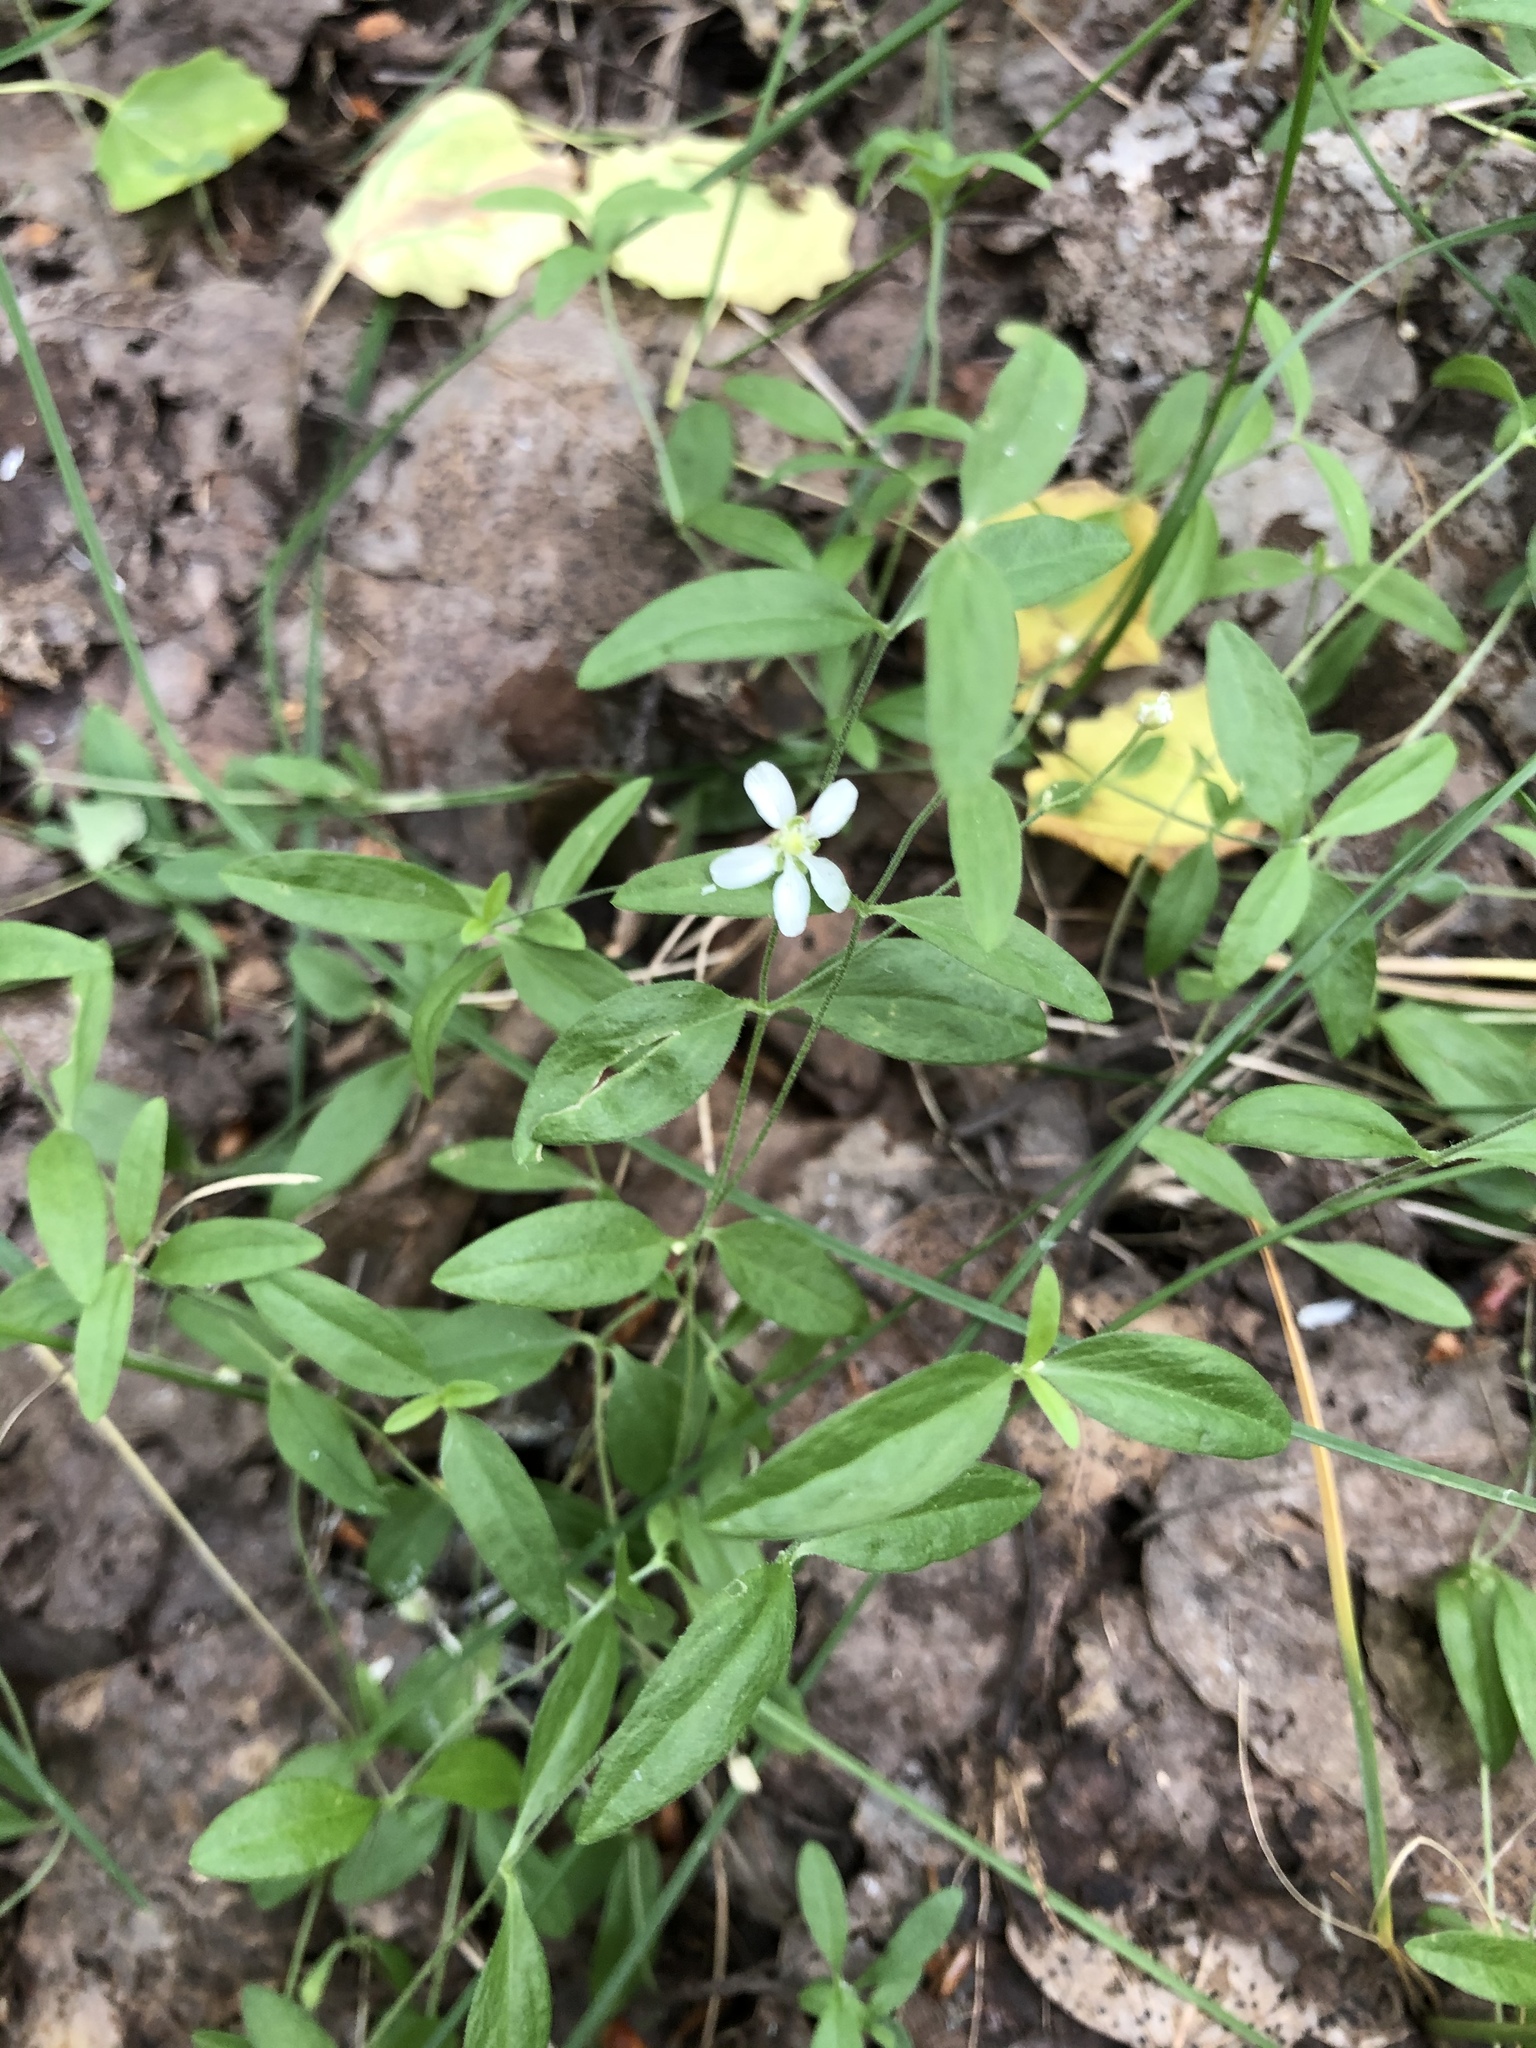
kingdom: Plantae
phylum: Tracheophyta
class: Magnoliopsida
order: Caryophyllales
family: Caryophyllaceae
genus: Moehringia
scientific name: Moehringia lateriflora
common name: Blunt-leaved sandwort
